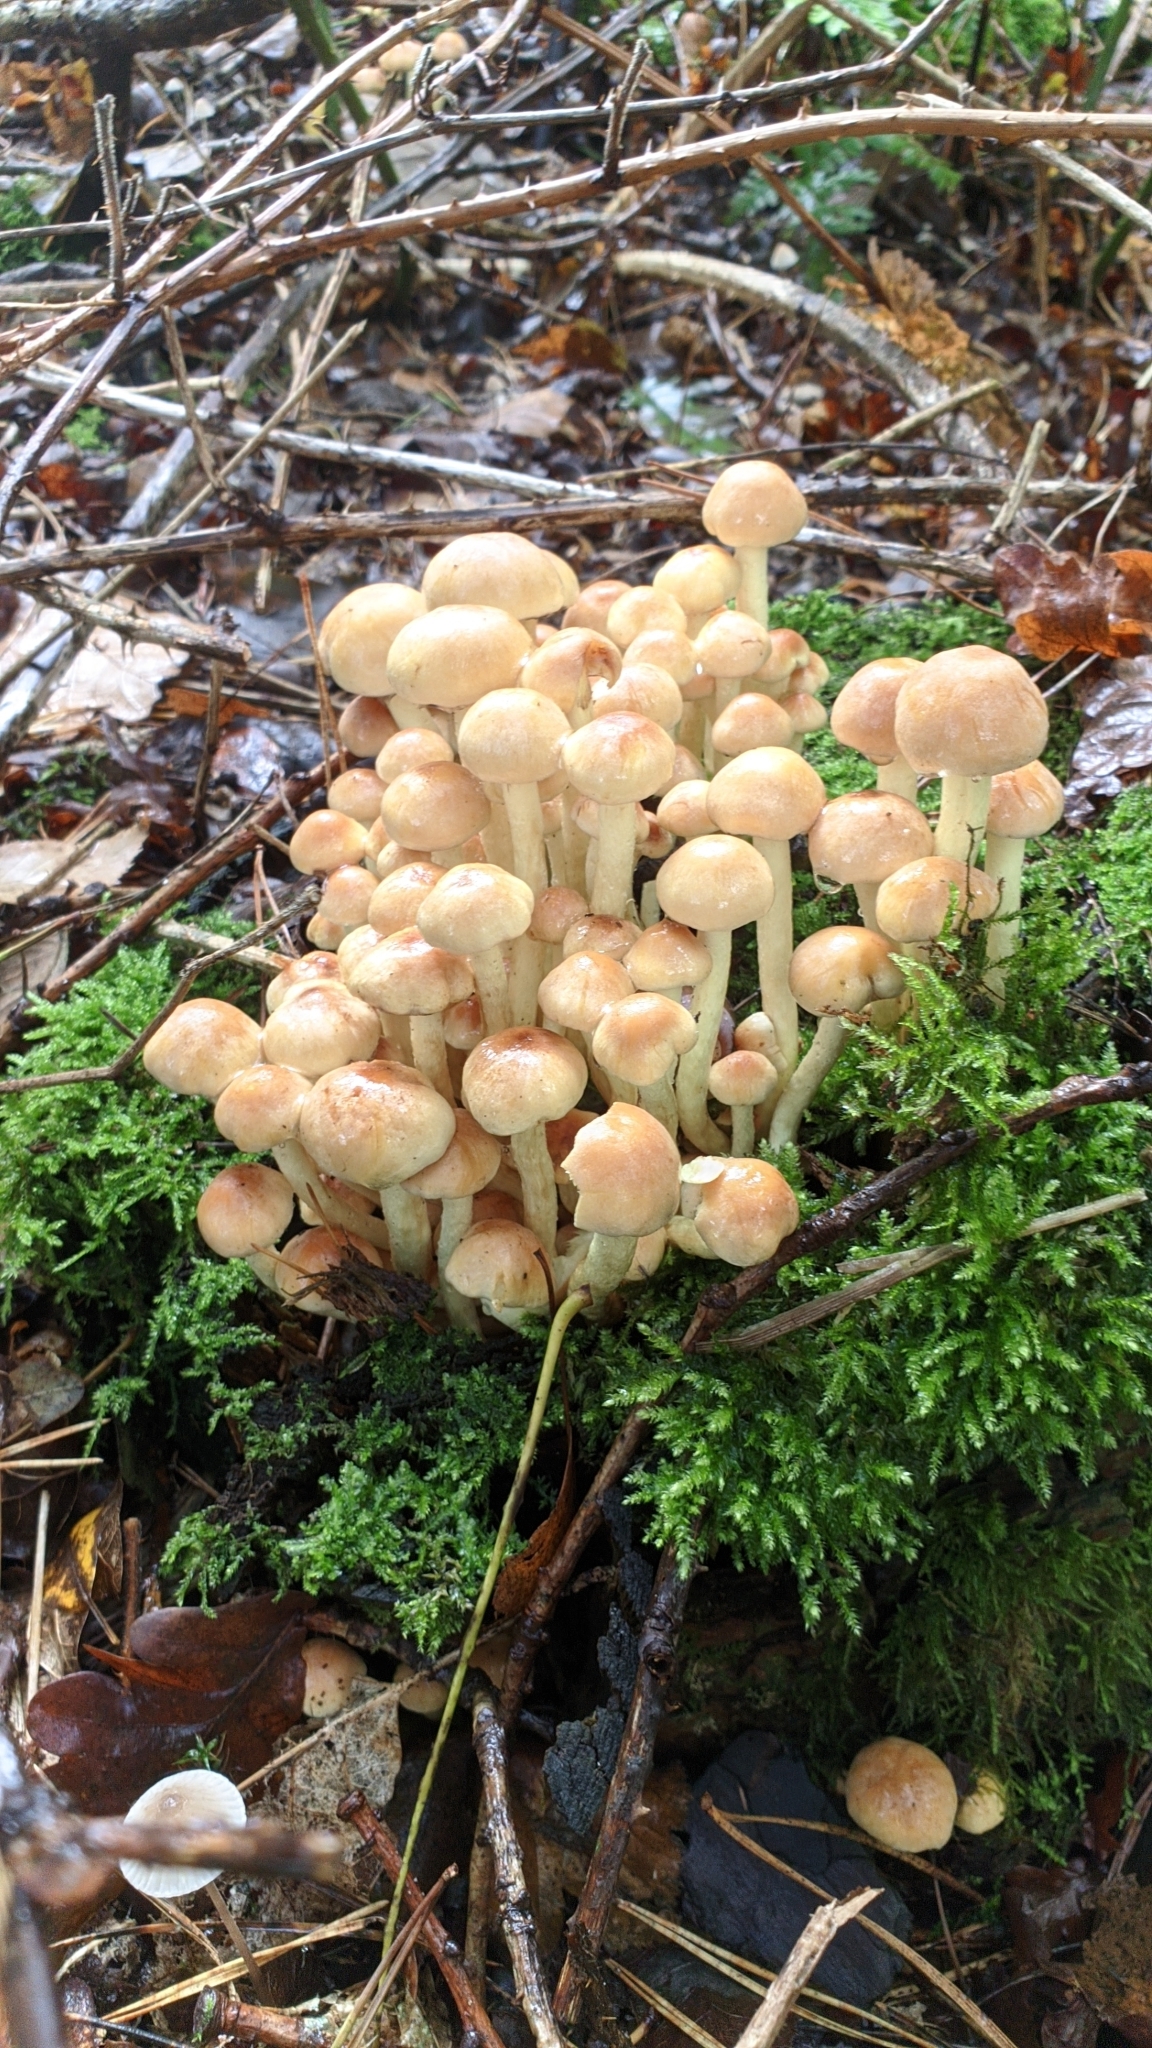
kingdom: Fungi
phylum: Basidiomycota
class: Agaricomycetes
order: Agaricales
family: Strophariaceae
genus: Hypholoma
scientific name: Hypholoma fasciculare
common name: Sulphur tuft
